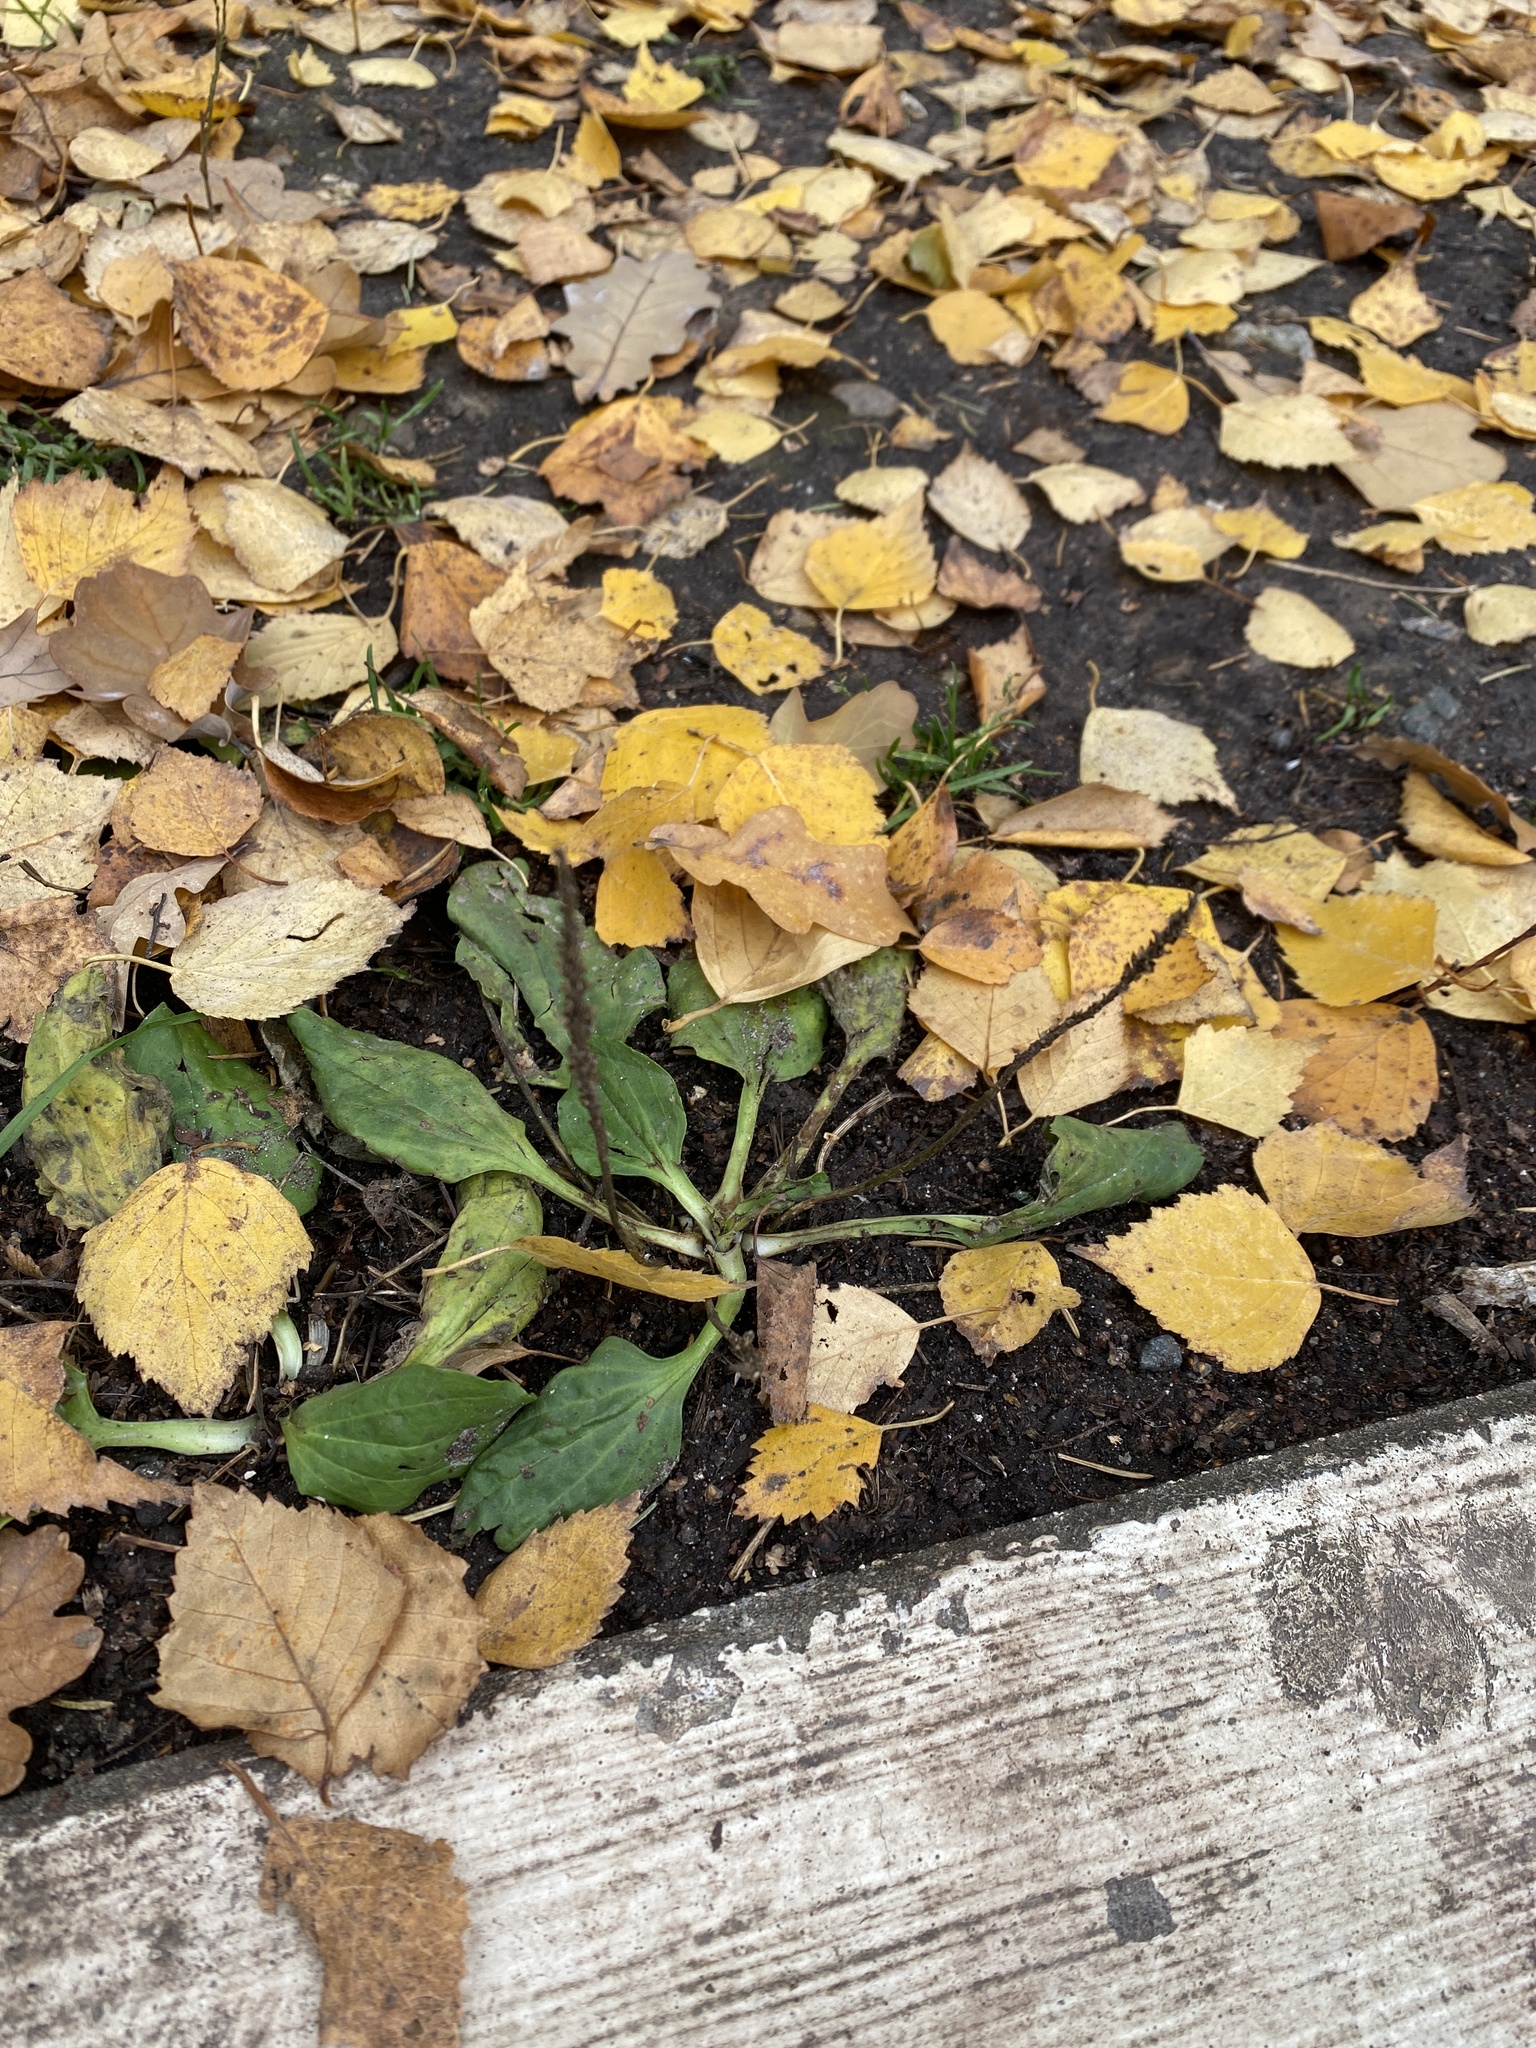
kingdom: Plantae
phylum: Tracheophyta
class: Magnoliopsida
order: Lamiales
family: Plantaginaceae
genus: Plantago
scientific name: Plantago major
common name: Common plantain
